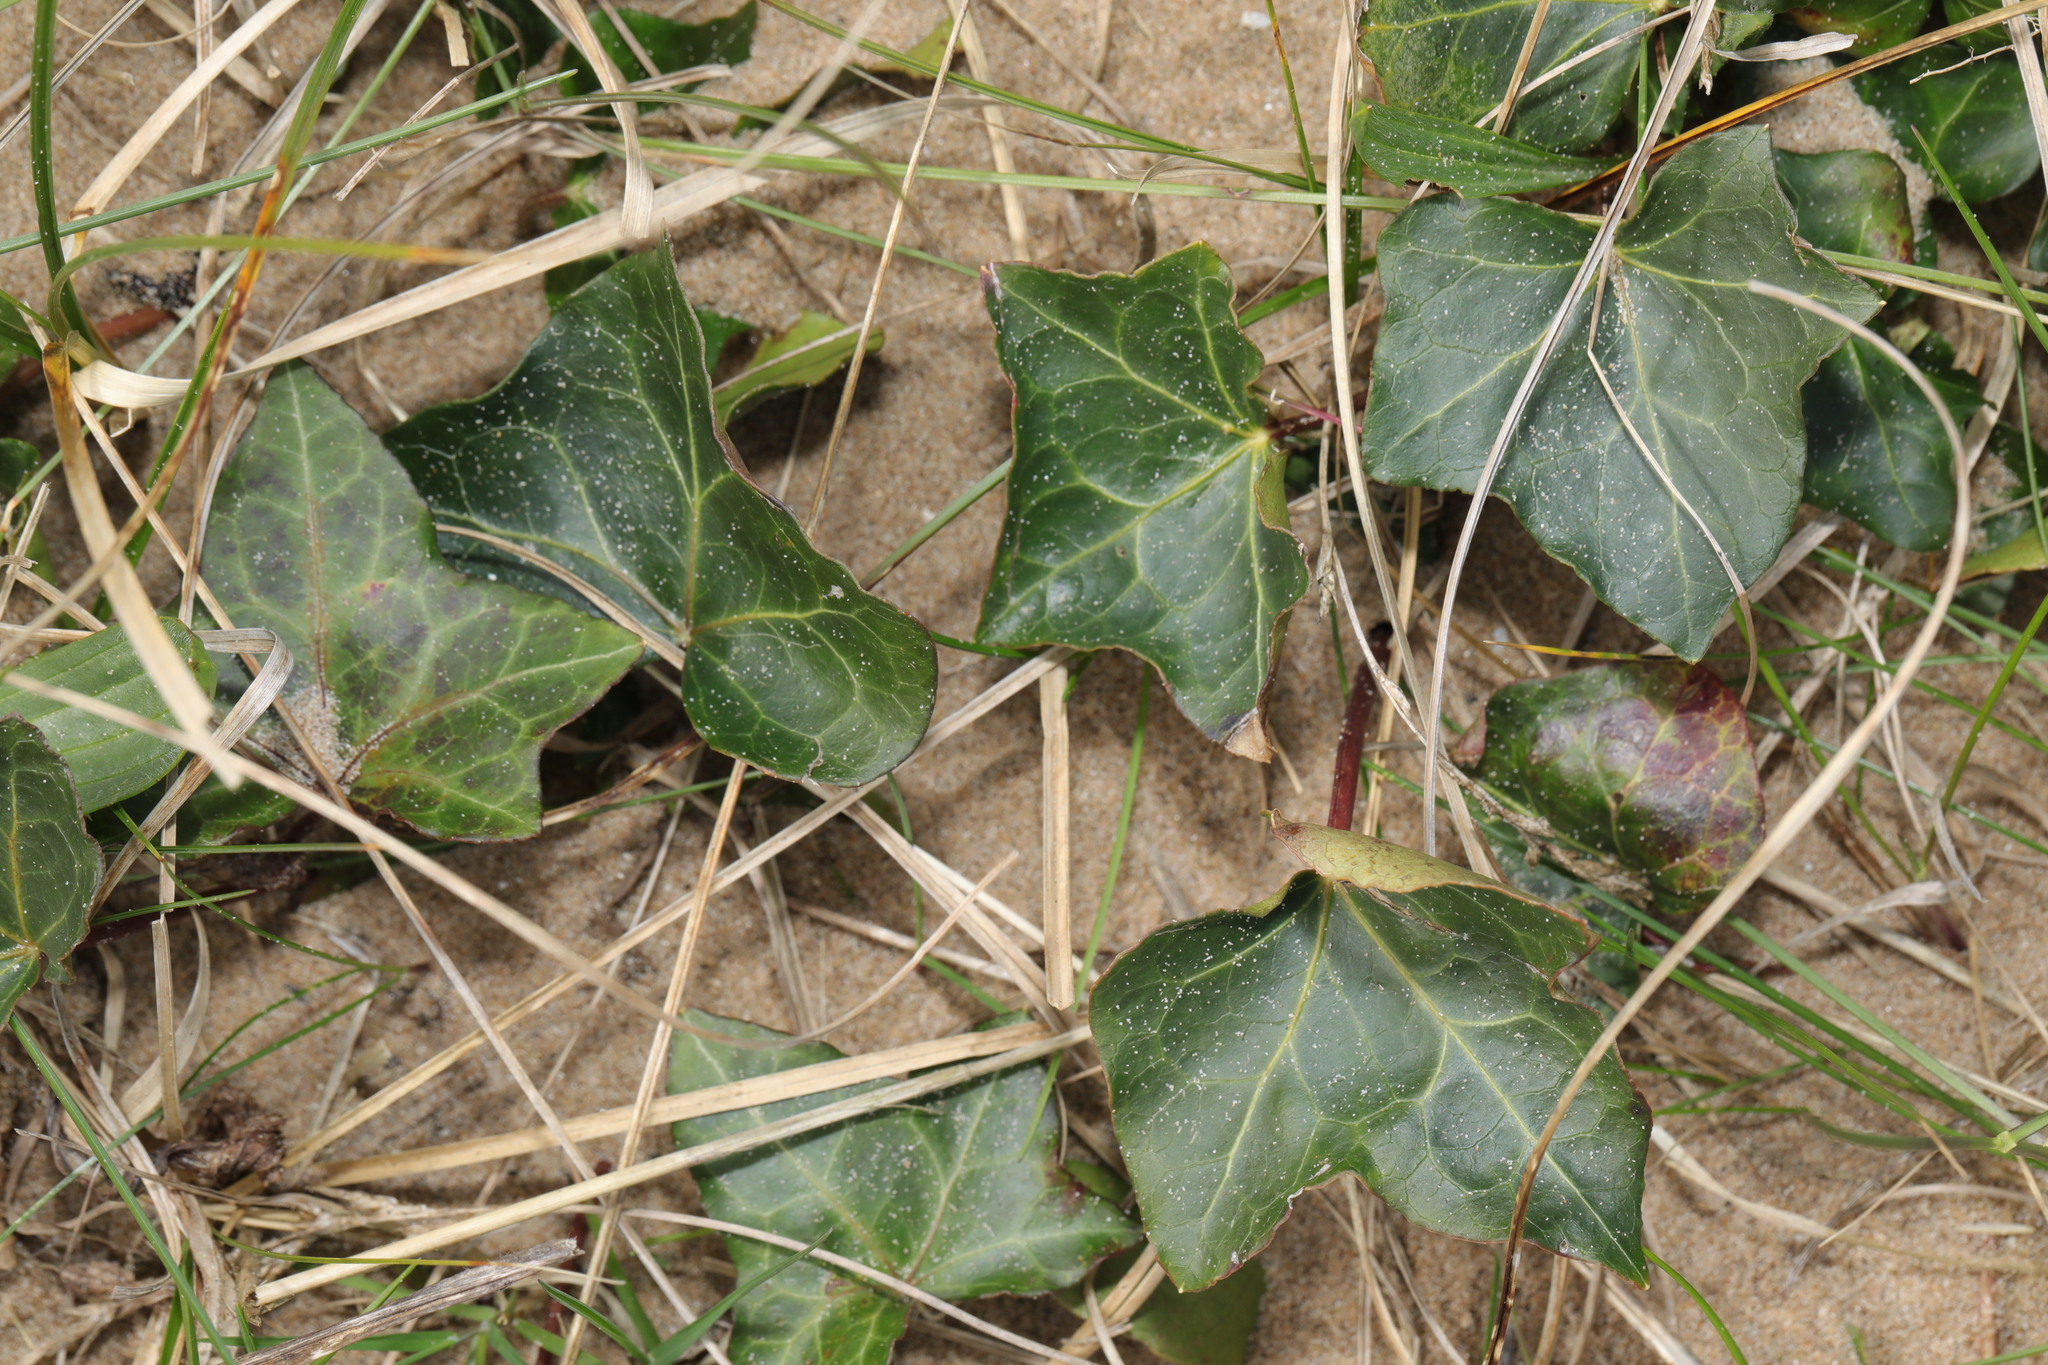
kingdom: Plantae
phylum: Tracheophyta
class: Magnoliopsida
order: Apiales
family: Araliaceae
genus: Hedera
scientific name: Hedera helix
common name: Ivy
